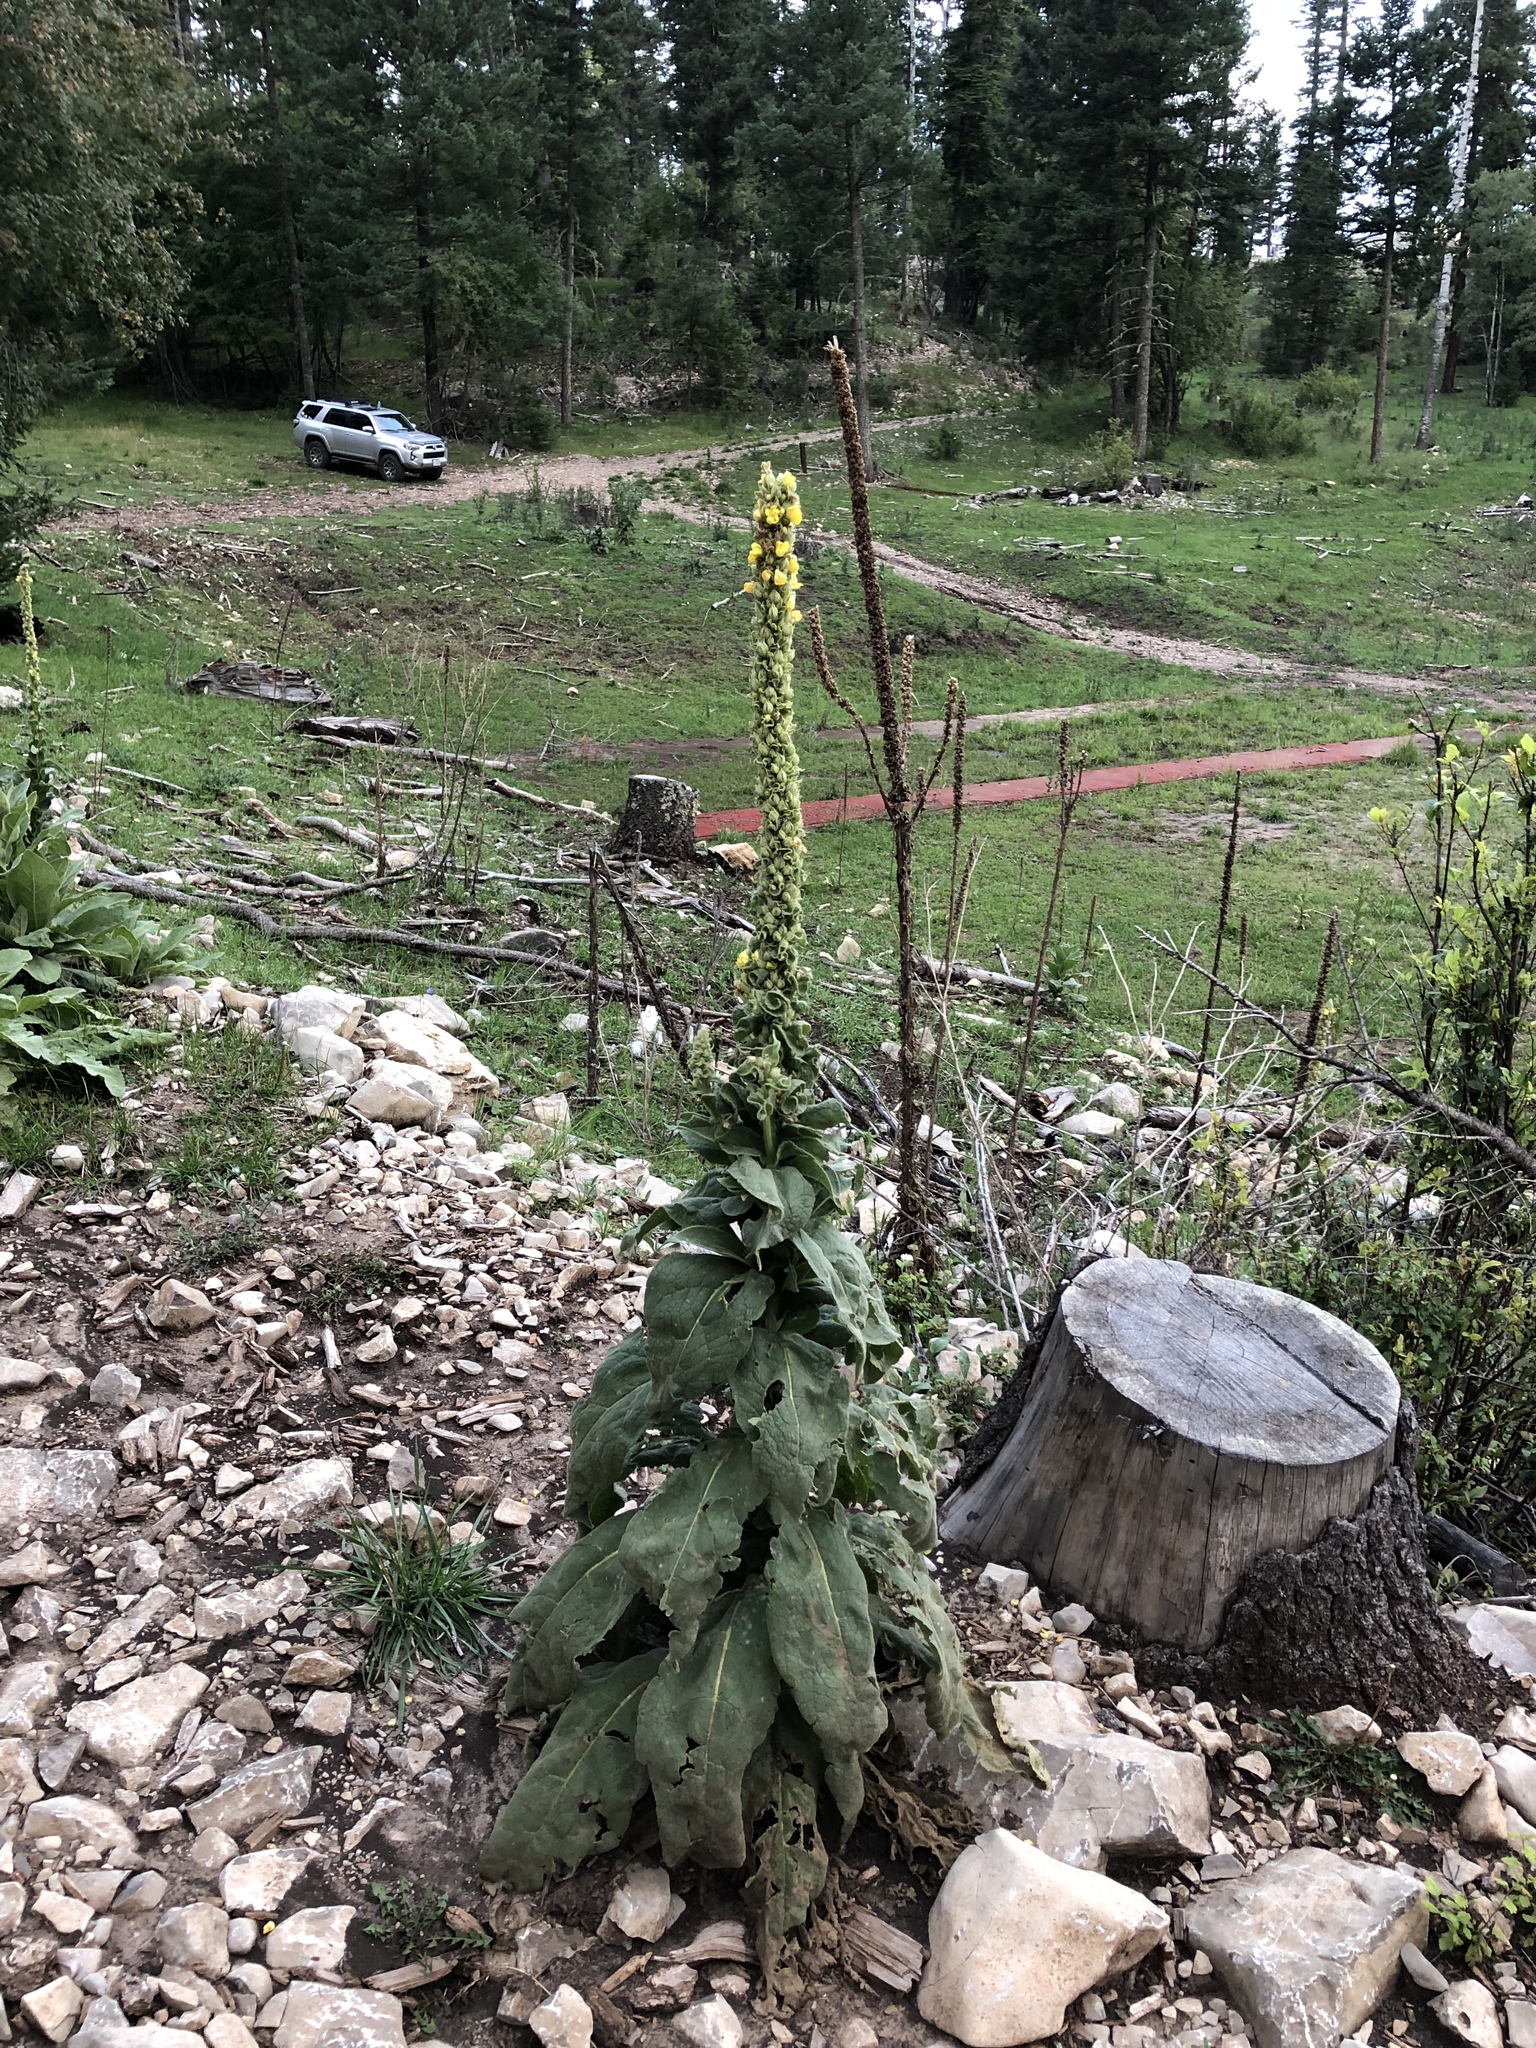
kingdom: Plantae
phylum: Tracheophyta
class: Magnoliopsida
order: Lamiales
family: Scrophulariaceae
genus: Verbascum
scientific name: Verbascum thapsus
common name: Common mullein
